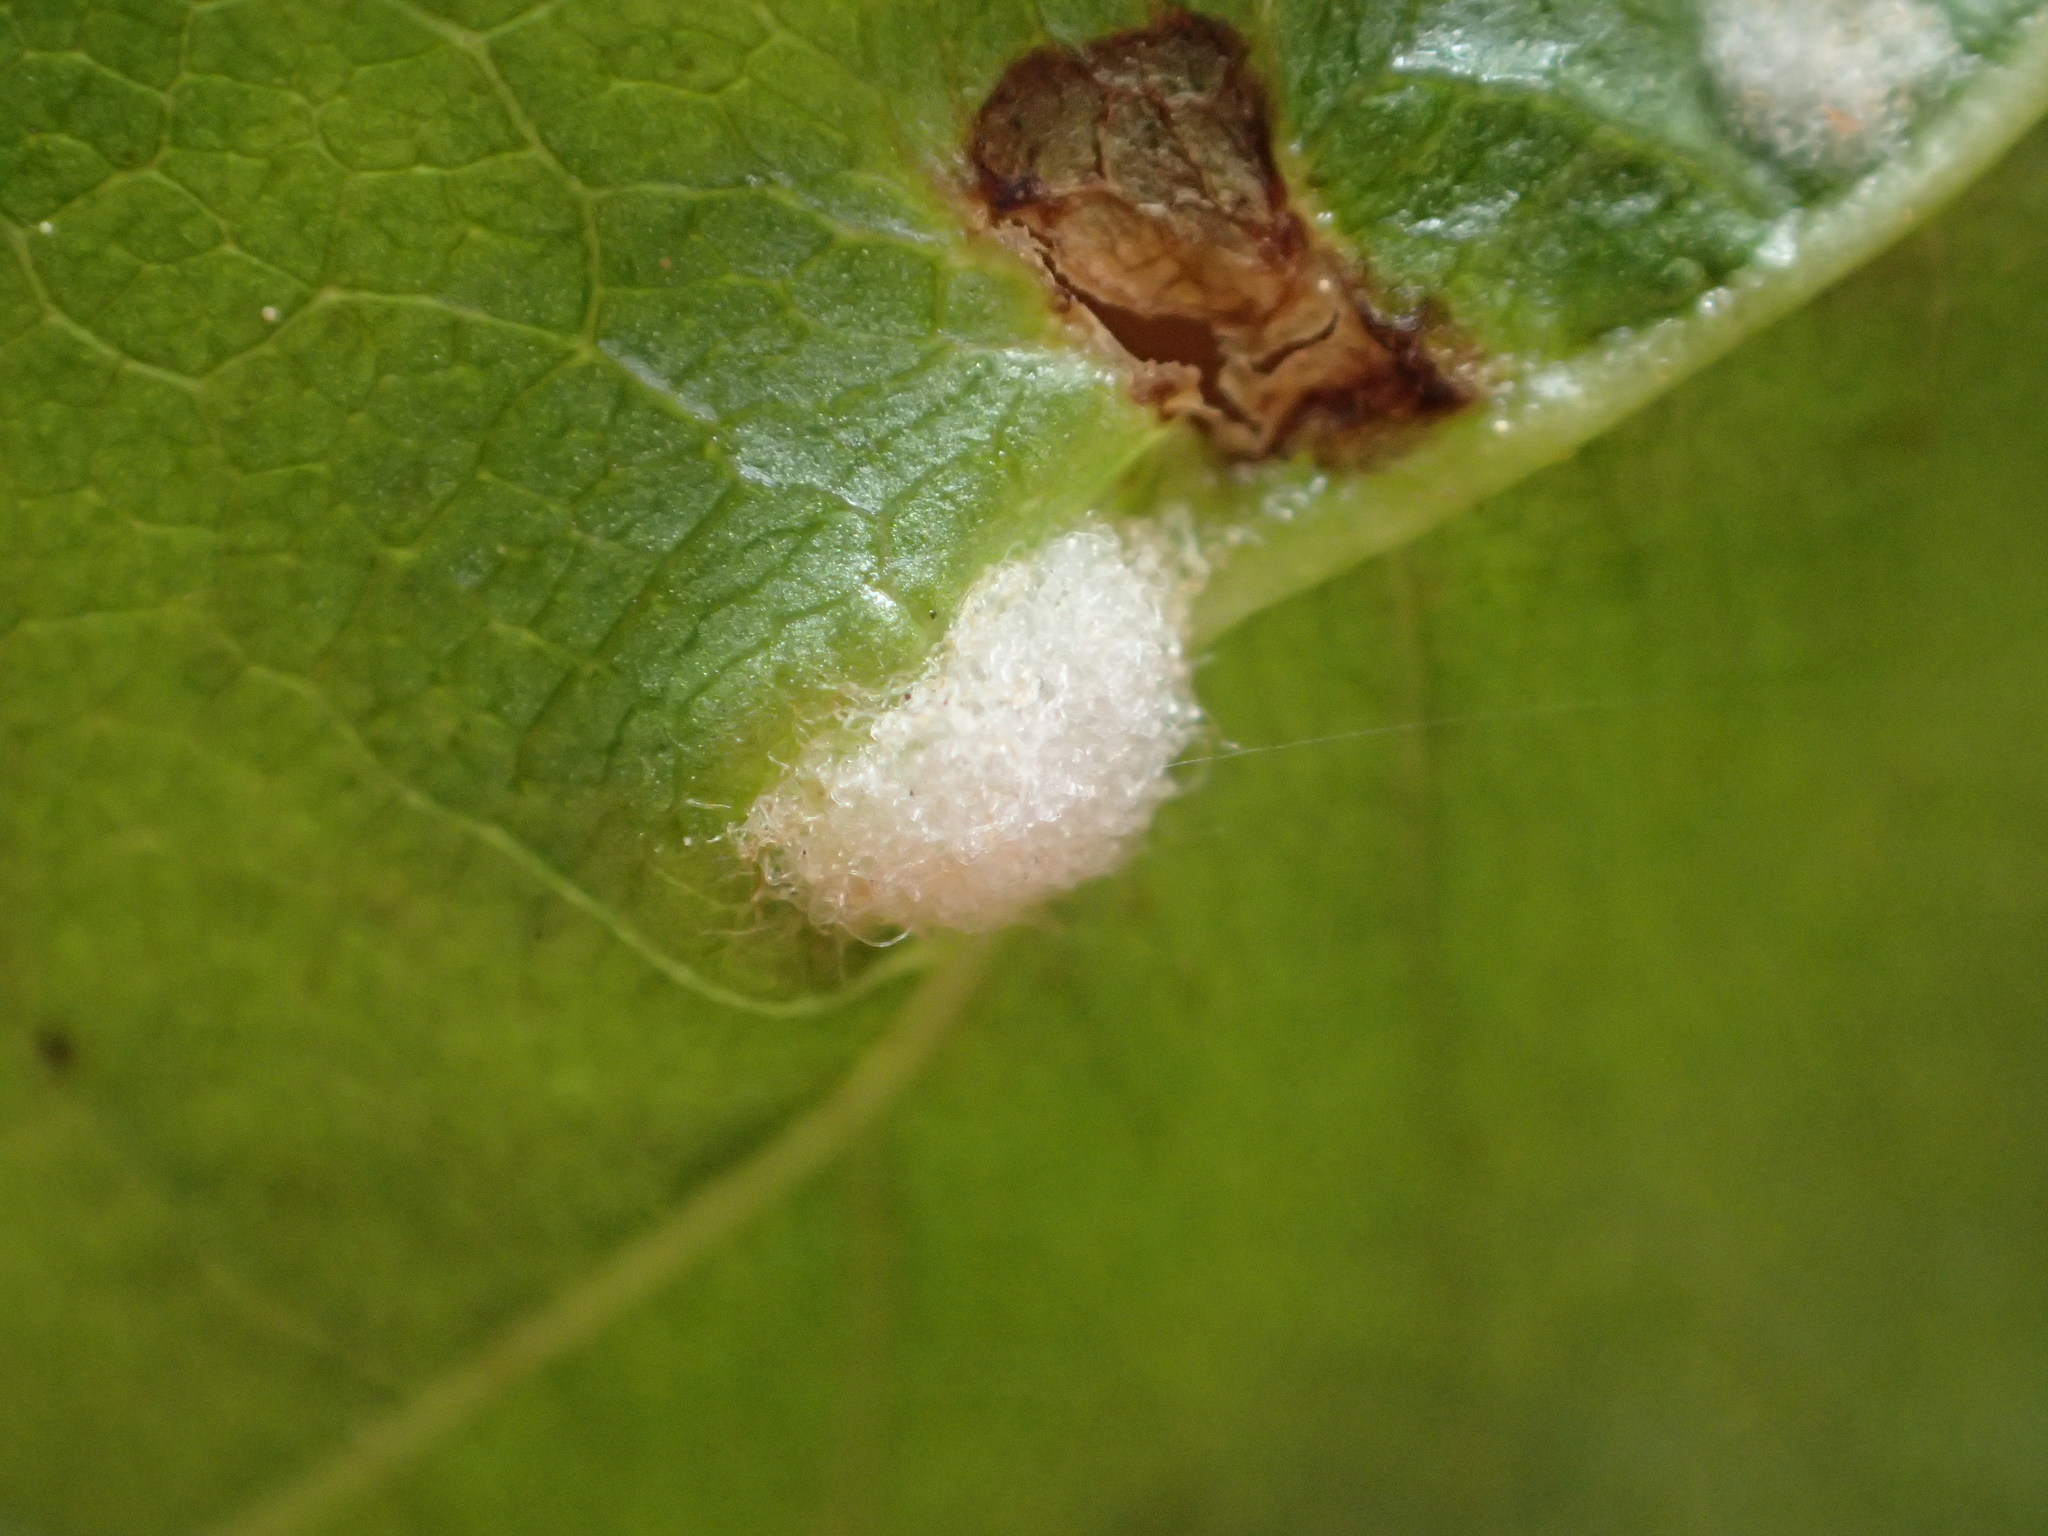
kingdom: Animalia
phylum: Arthropoda
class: Arachnida
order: Trombidiformes
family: Eriophyidae
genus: Acalitus
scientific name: Acalitus brevitarsus
